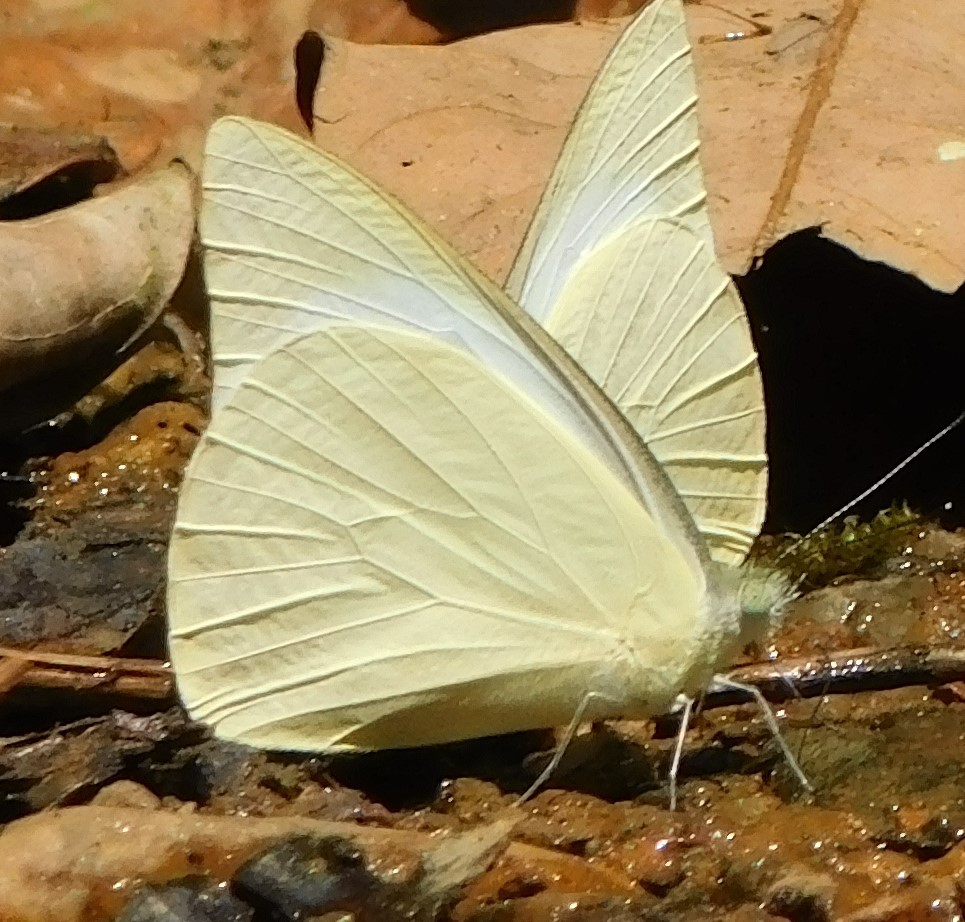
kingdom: Animalia
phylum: Arthropoda
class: Insecta
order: Lepidoptera
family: Pieridae
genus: Appias
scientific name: Appias albina
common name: Common albatross
